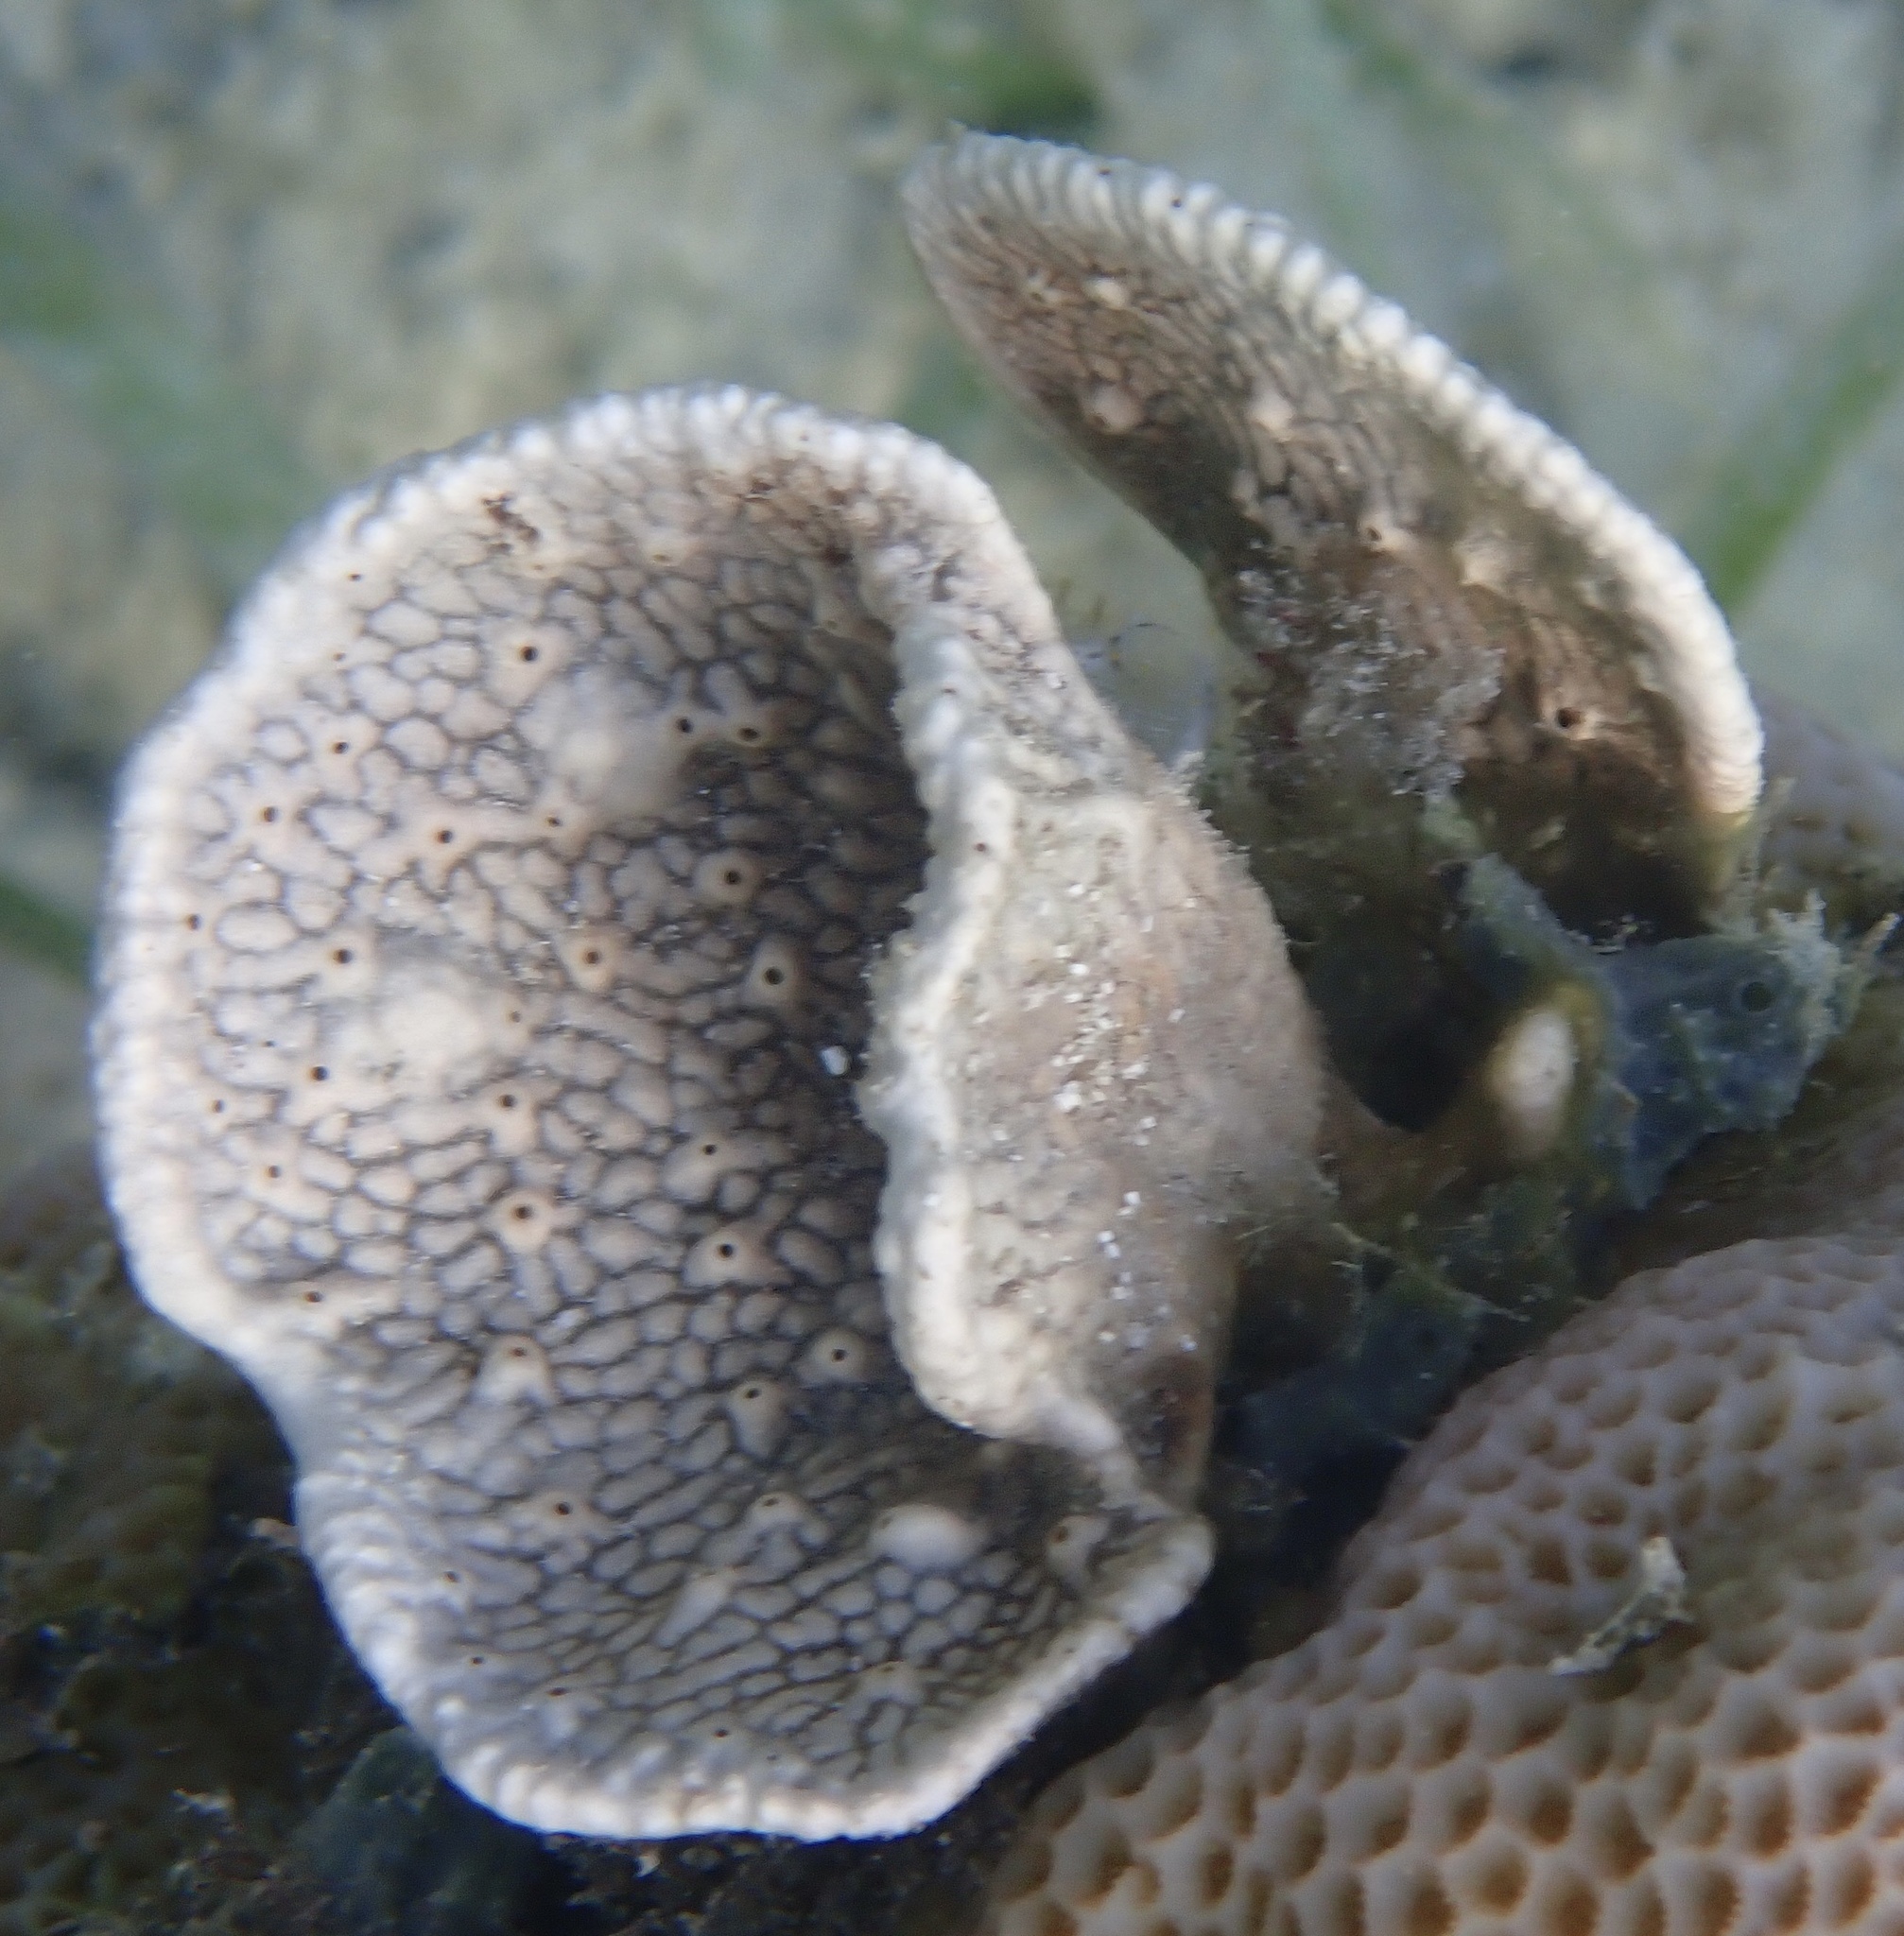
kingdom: Animalia
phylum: Porifera
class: Demospongiae
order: Dictyoceratida
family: Thorectidae
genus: Phyllospongia
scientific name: Phyllospongia foliascens
